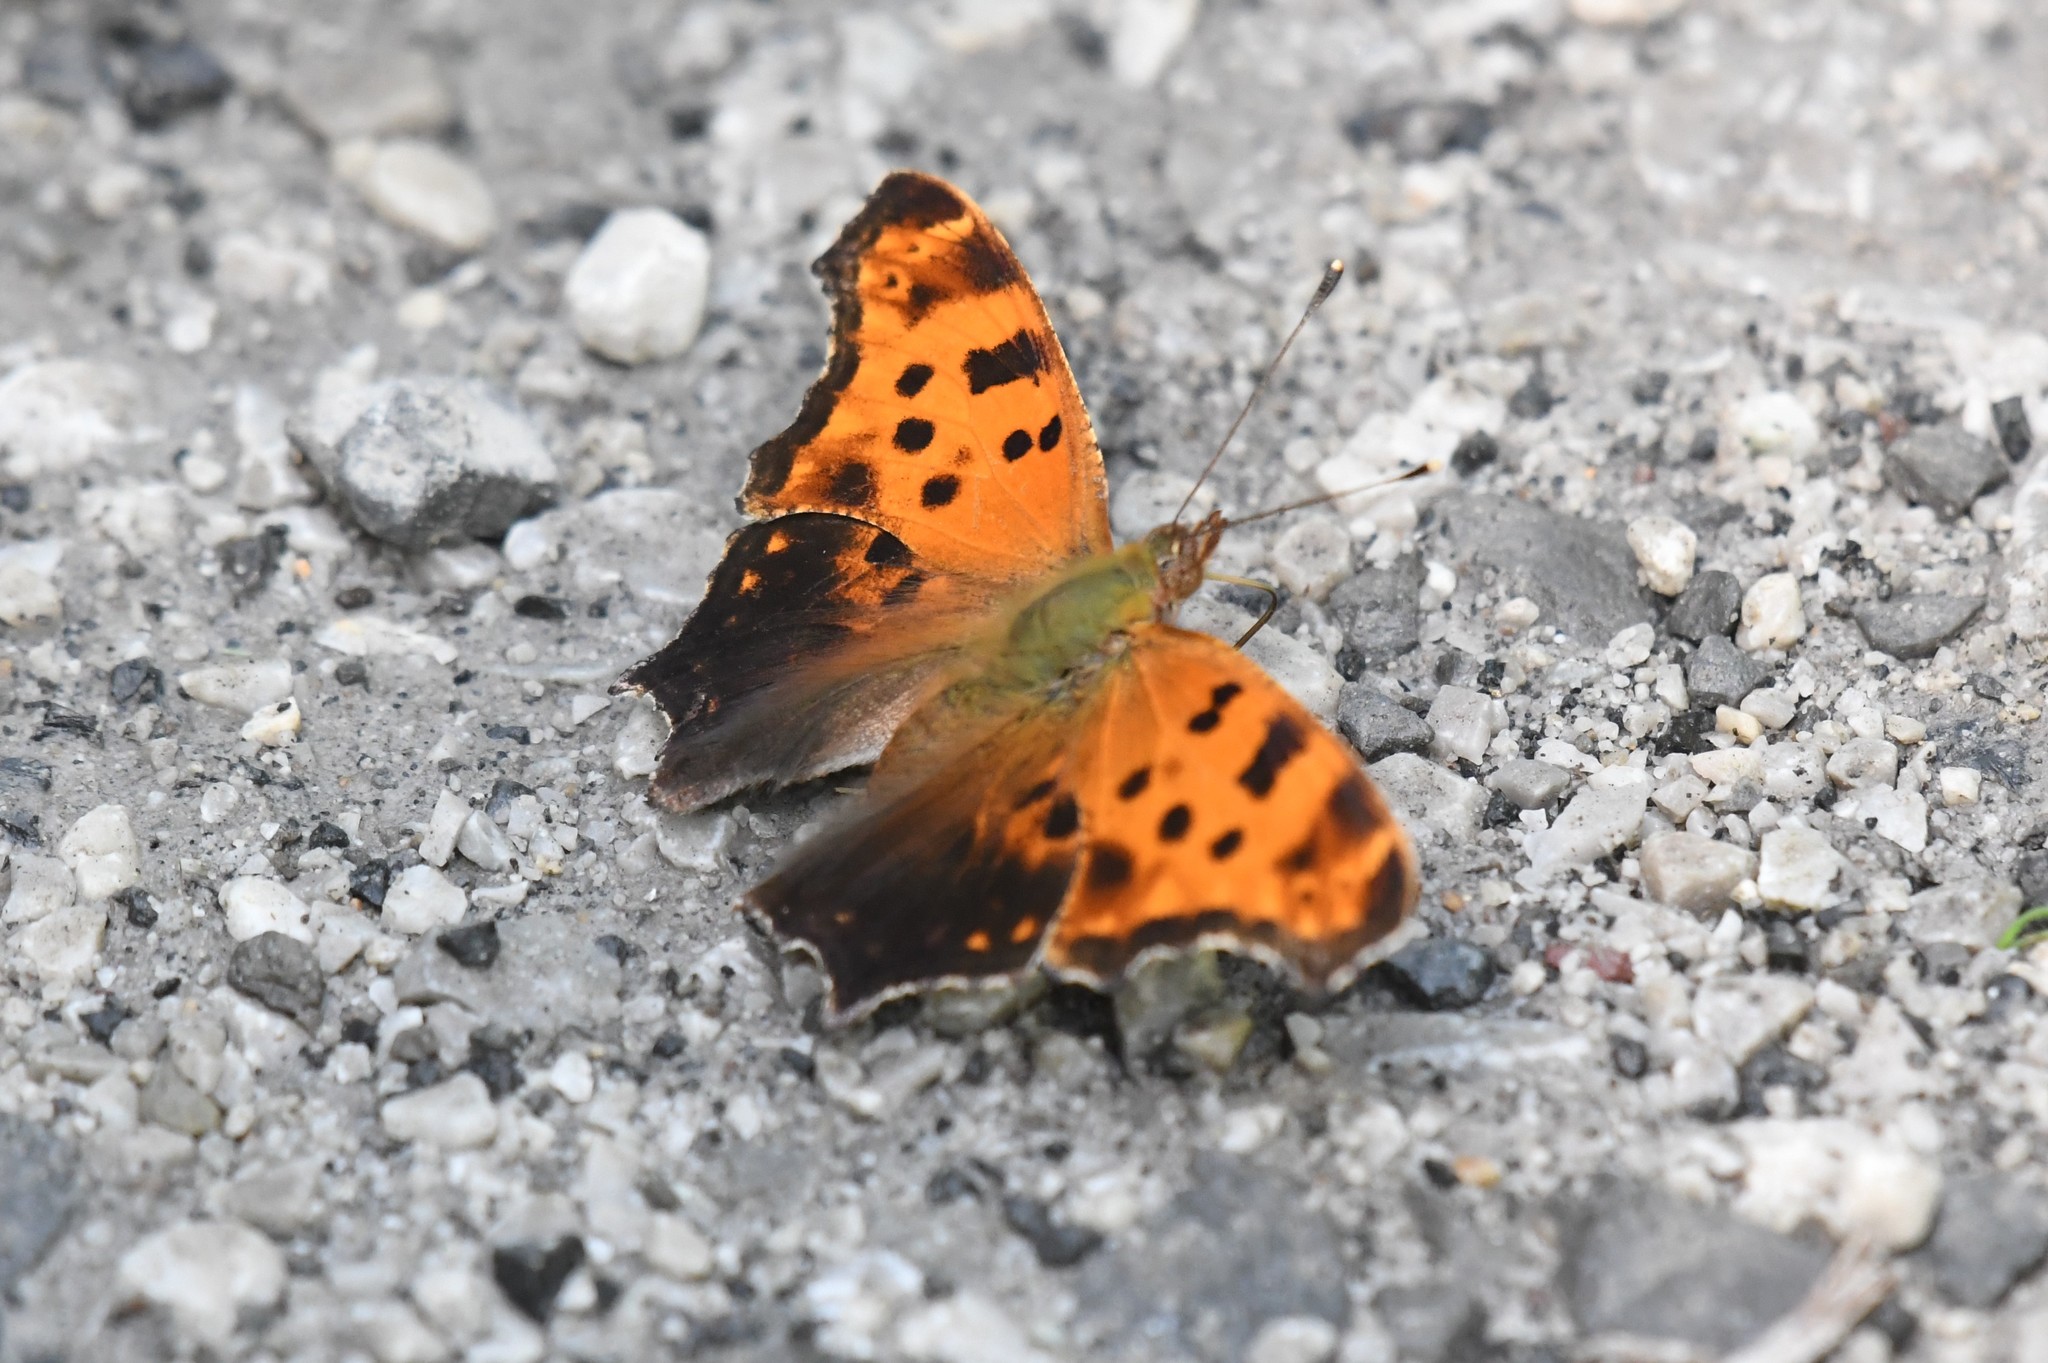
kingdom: Animalia
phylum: Arthropoda
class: Insecta
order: Lepidoptera
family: Nymphalidae
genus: Polygonia
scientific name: Polygonia comma
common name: Eastern comma
